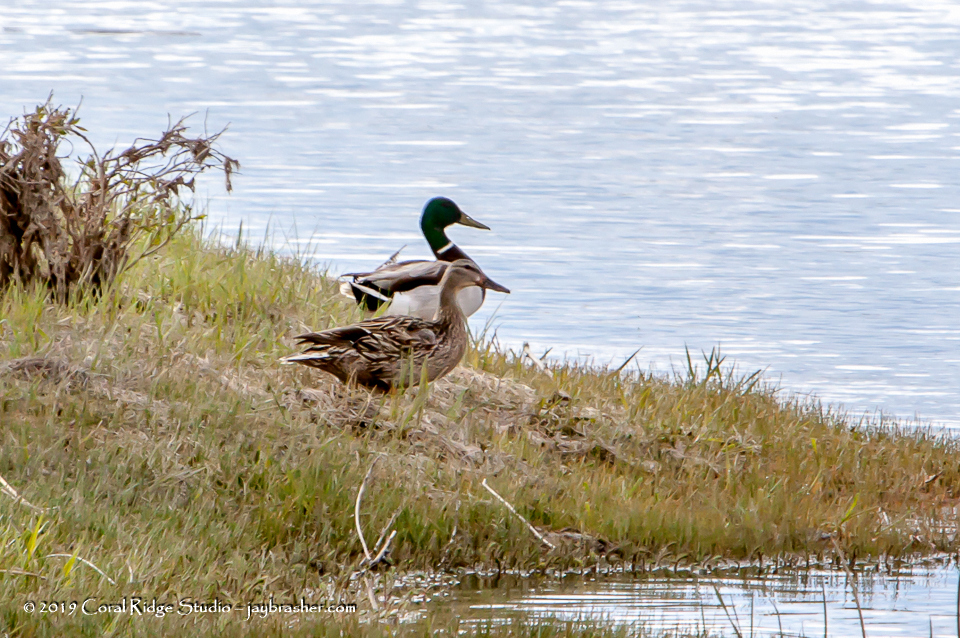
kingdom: Animalia
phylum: Chordata
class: Aves
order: Anseriformes
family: Anatidae
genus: Anas
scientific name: Anas platyrhynchos
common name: Mallard
